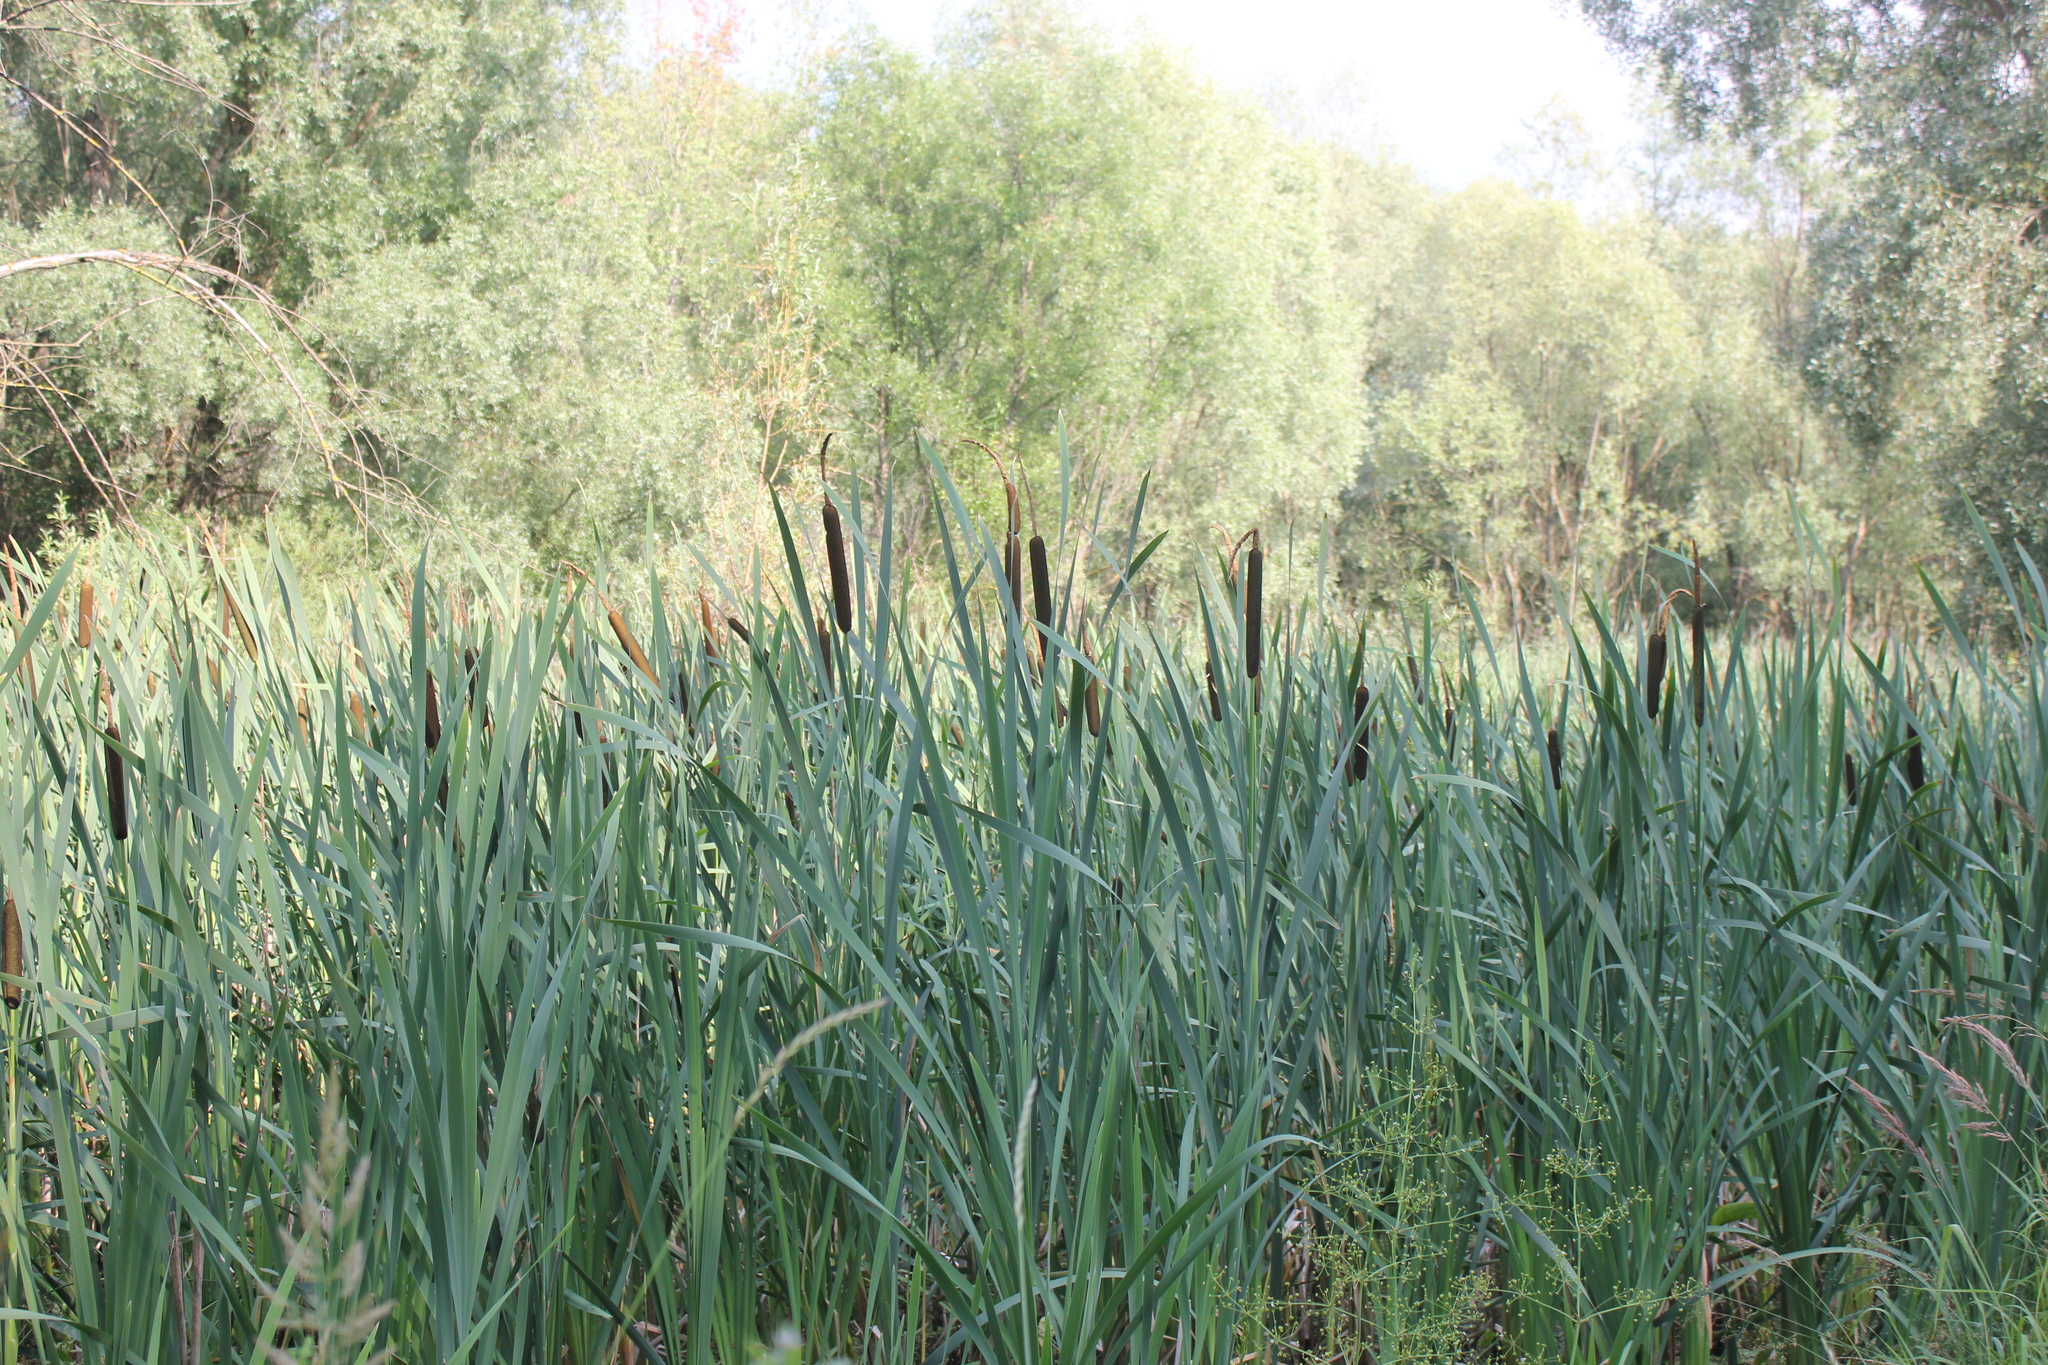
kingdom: Plantae
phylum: Tracheophyta
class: Liliopsida
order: Poales
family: Typhaceae
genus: Typha
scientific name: Typha latifolia
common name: Broadleaf cattail
